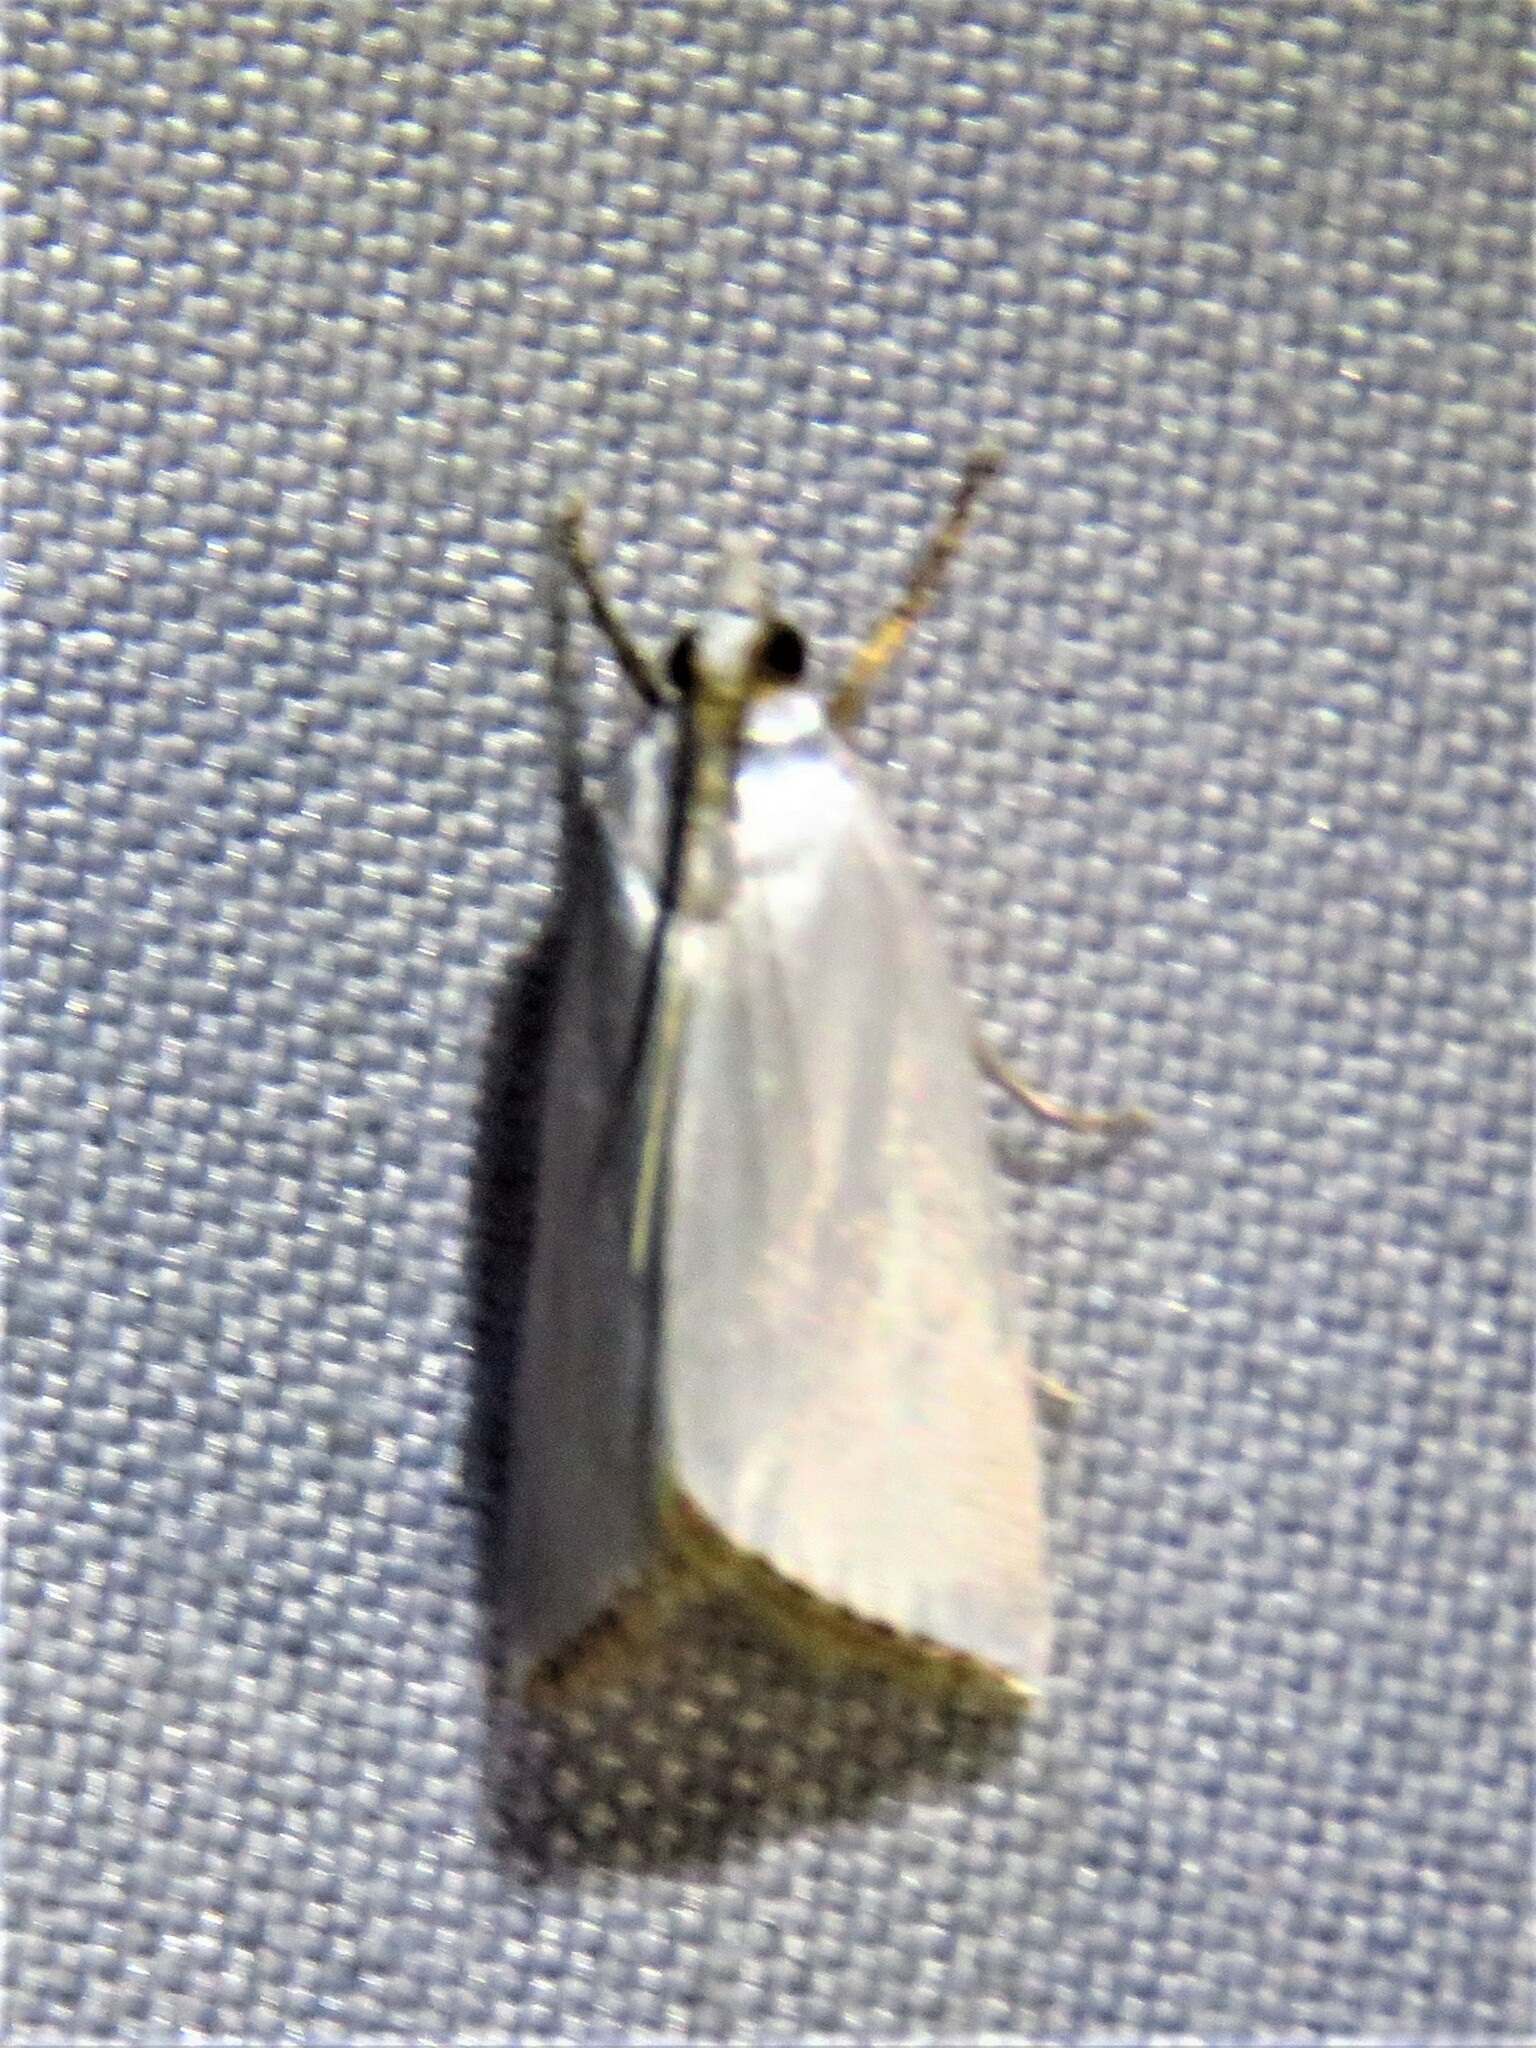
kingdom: Animalia
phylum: Arthropoda
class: Insecta
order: Lepidoptera
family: Crambidae
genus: Argyria
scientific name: Argyria nivalis
